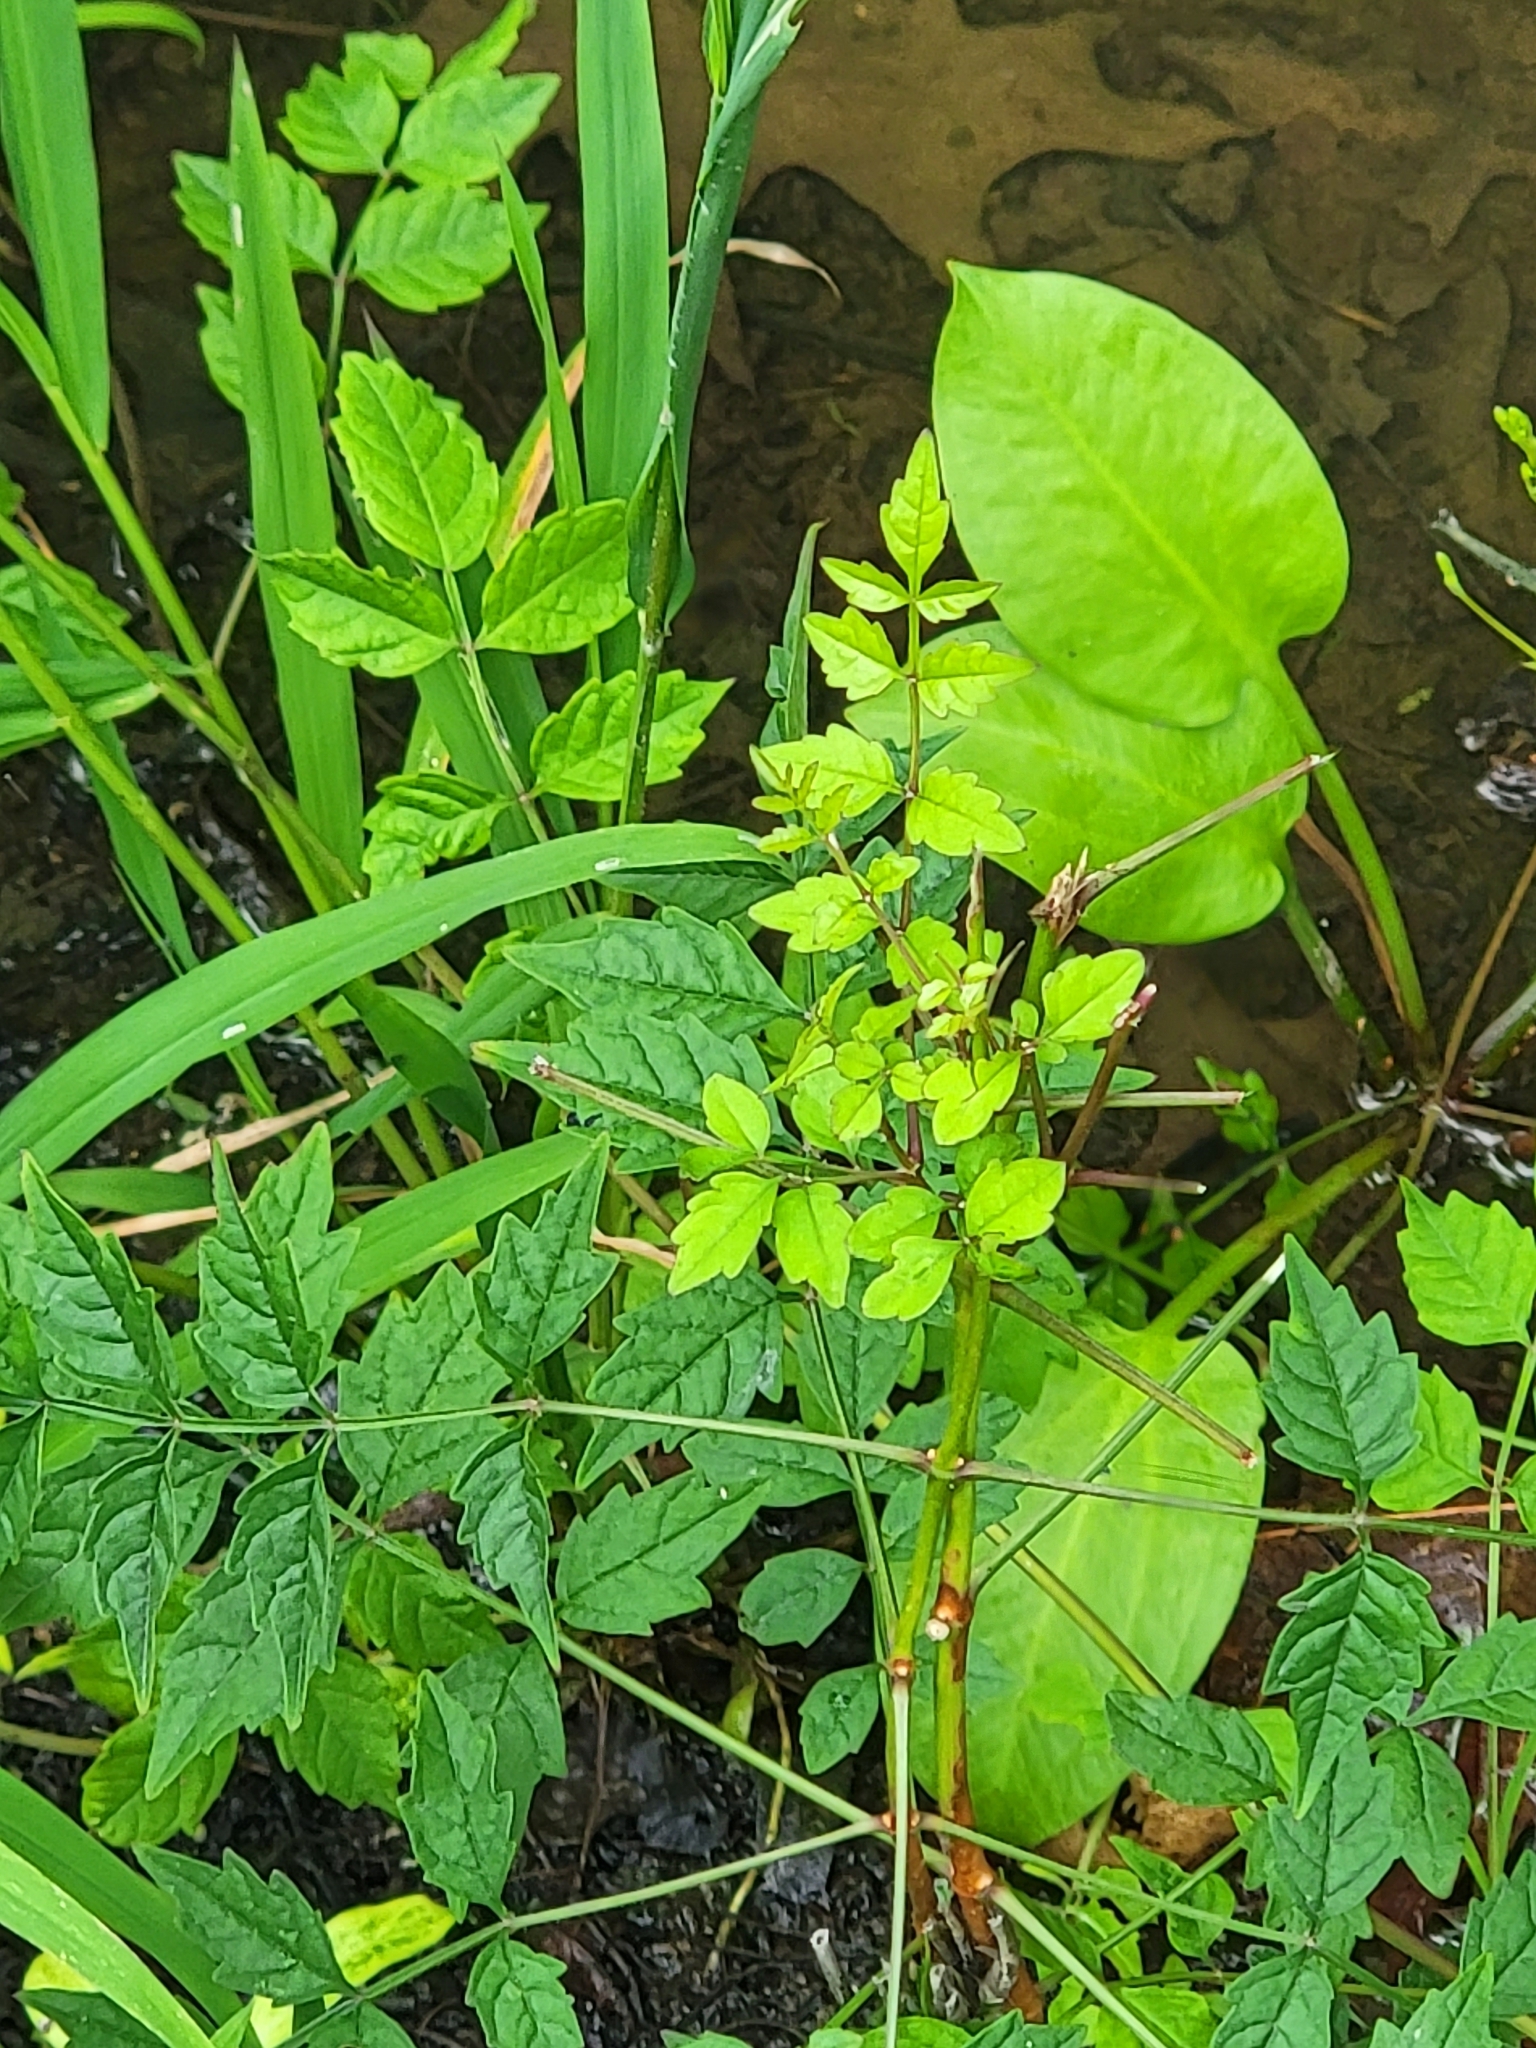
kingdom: Plantae
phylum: Tracheophyta
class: Magnoliopsida
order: Lamiales
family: Bignoniaceae
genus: Campsis
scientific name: Campsis radicans
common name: Trumpet-creeper
